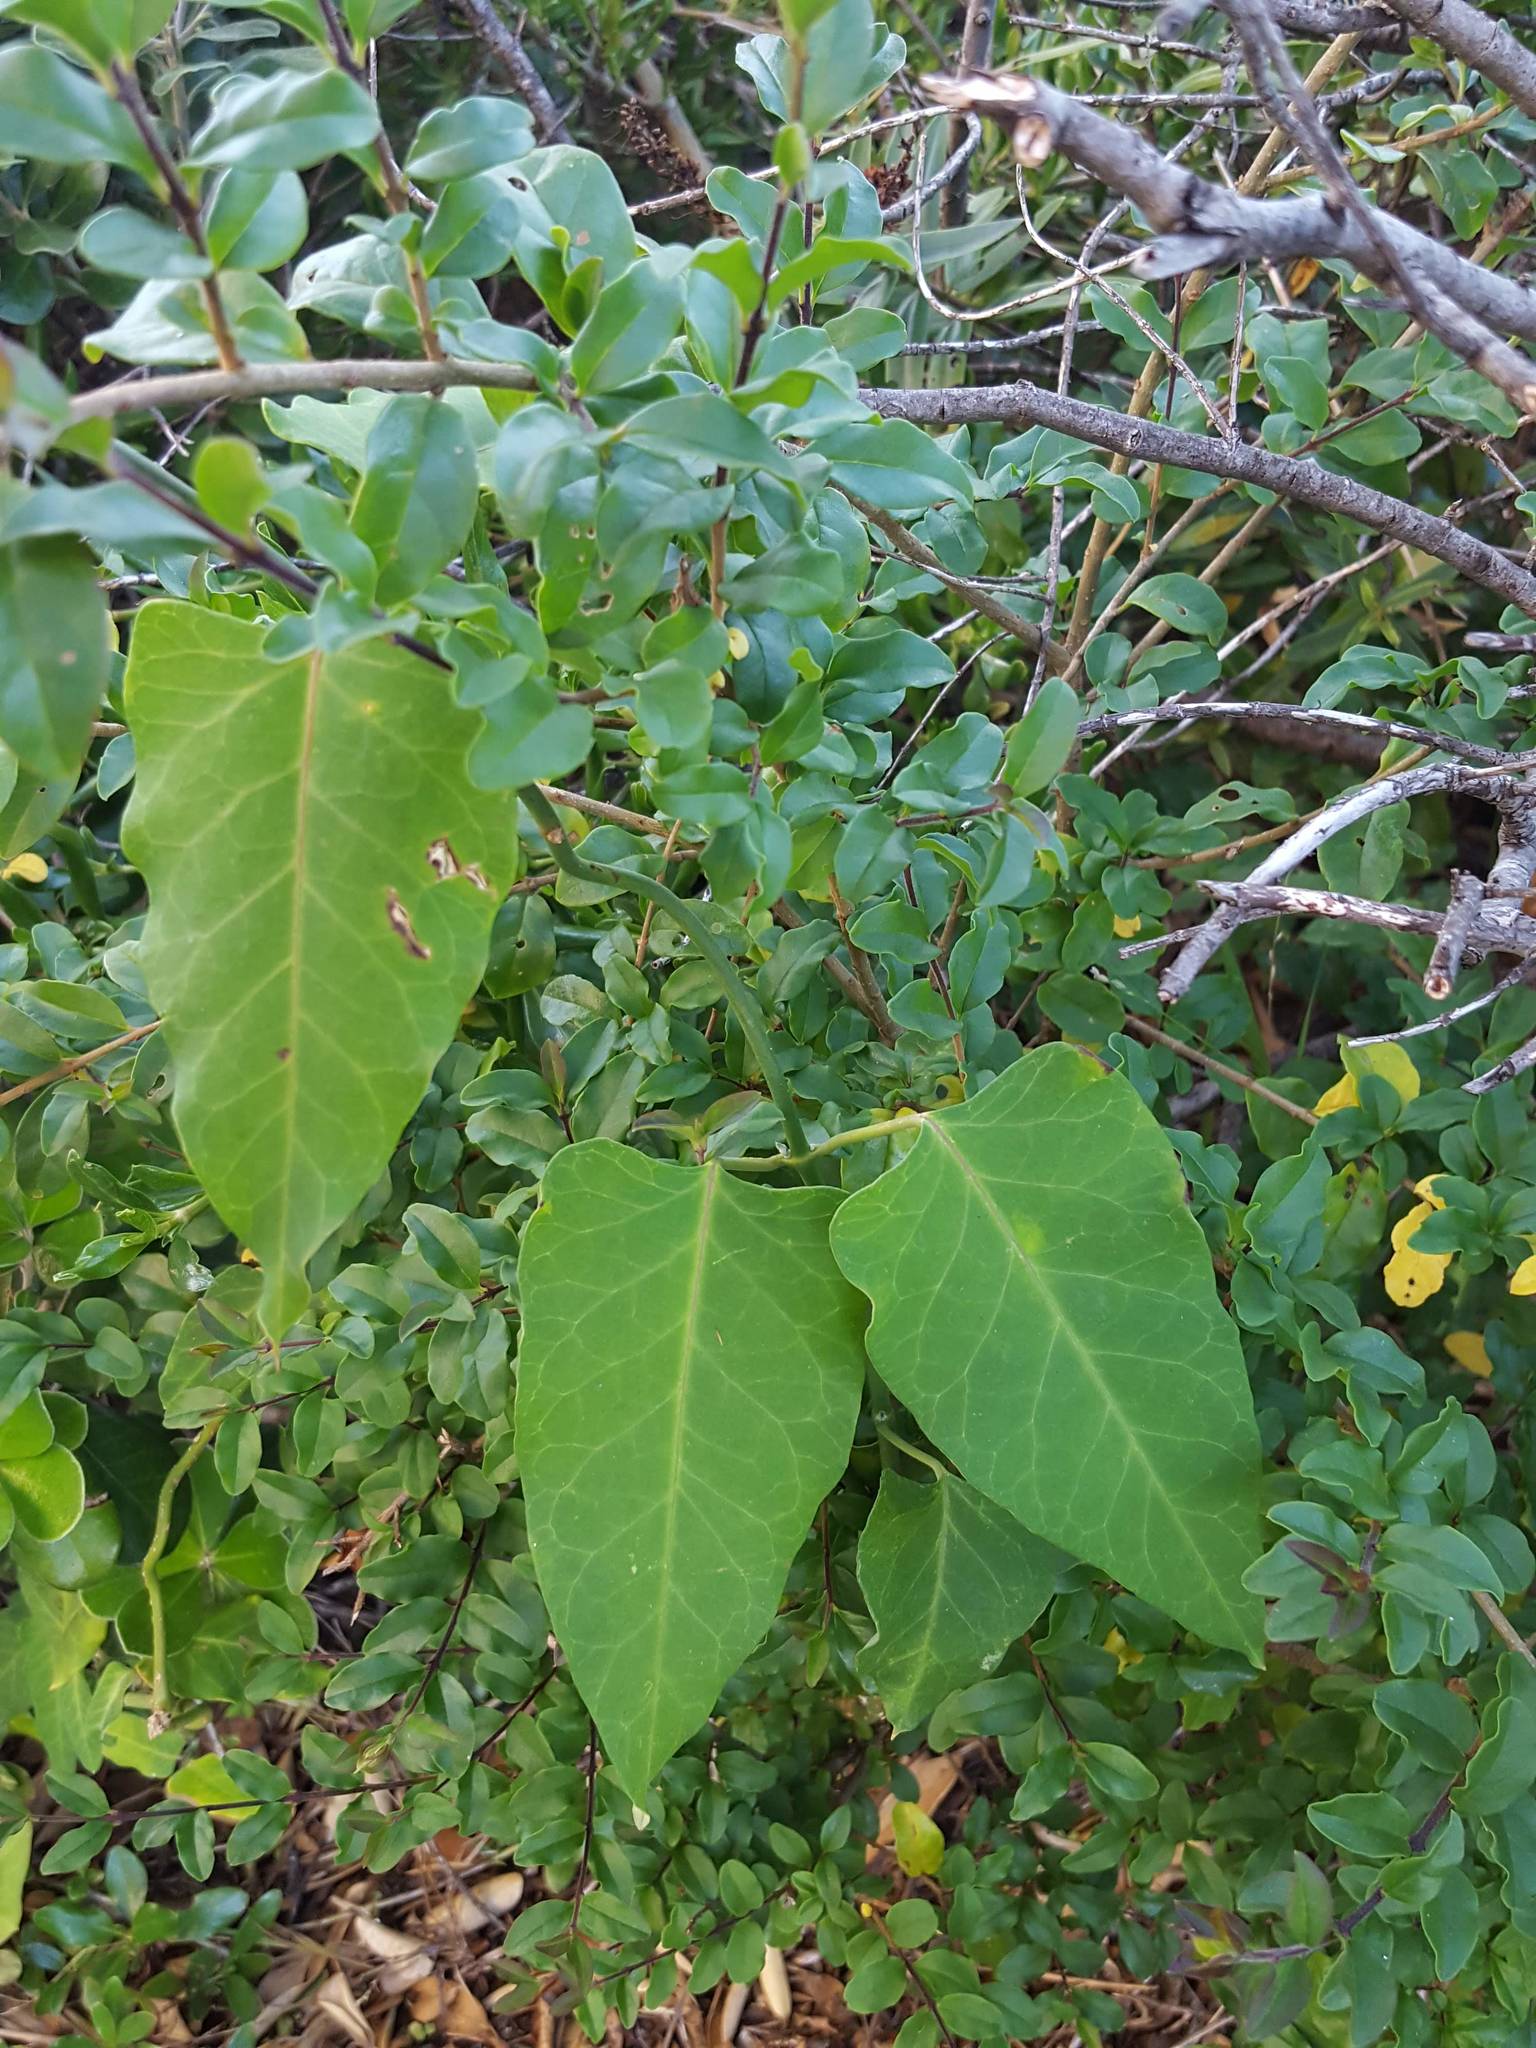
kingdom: Plantae
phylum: Tracheophyta
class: Magnoliopsida
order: Gentianales
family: Apocynaceae
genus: Araujia
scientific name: Araujia sericifera
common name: White bladderflower
